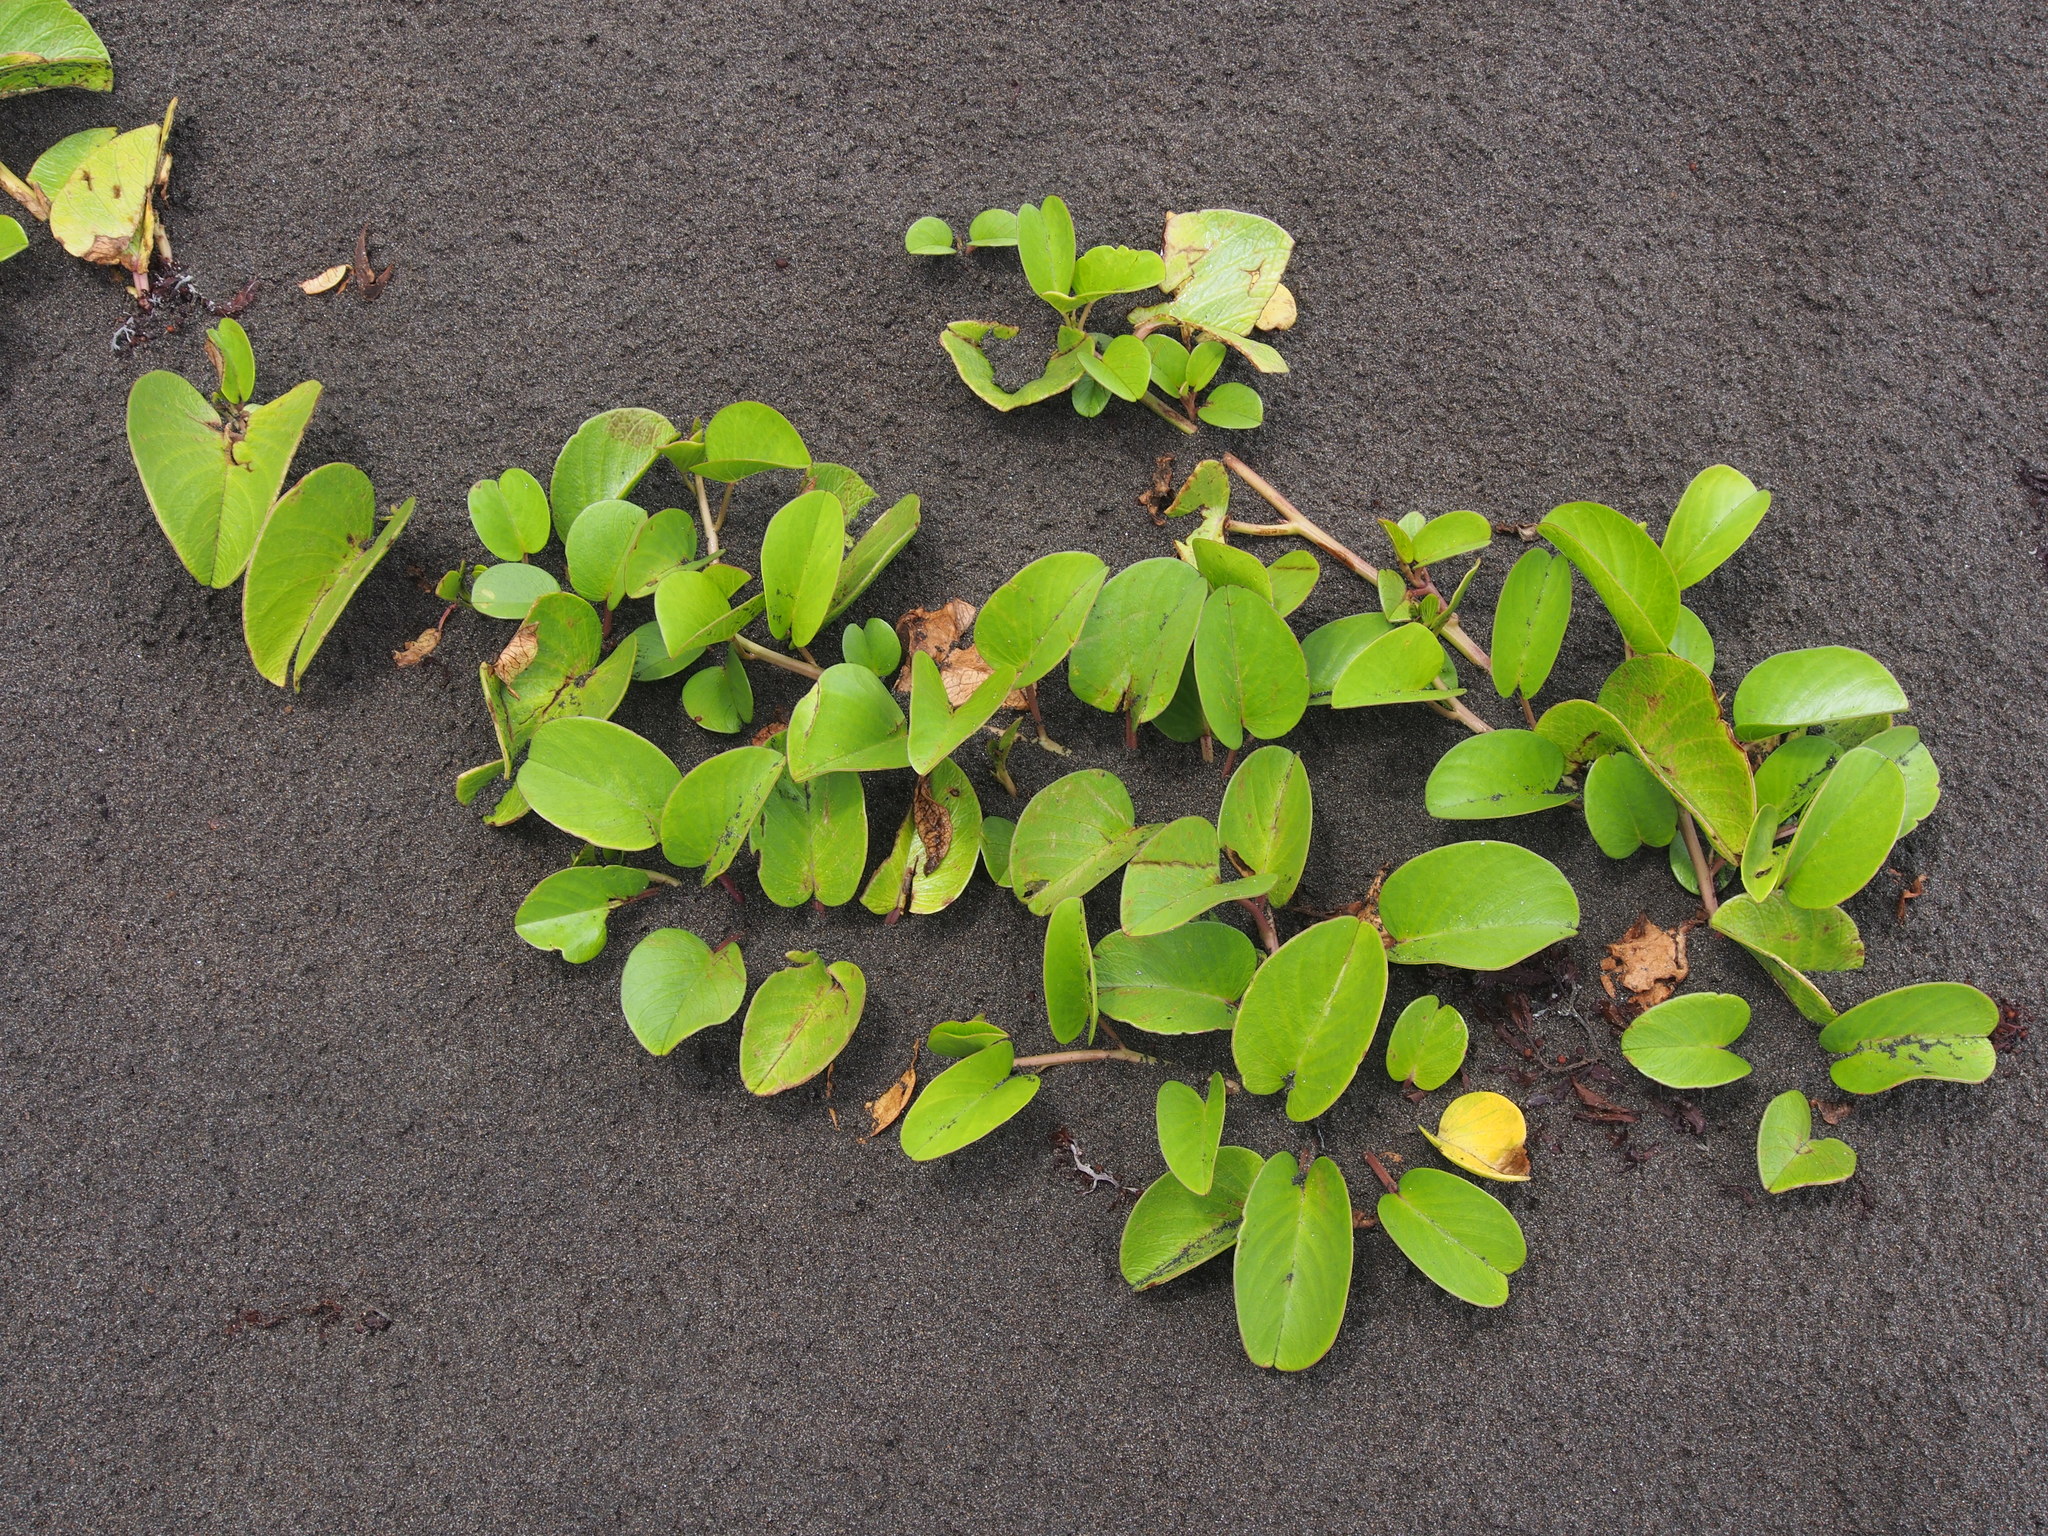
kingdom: Plantae
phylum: Tracheophyta
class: Magnoliopsida
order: Solanales
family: Convolvulaceae
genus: Ipomoea
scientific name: Ipomoea pes-caprae
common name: Beach morning glory
